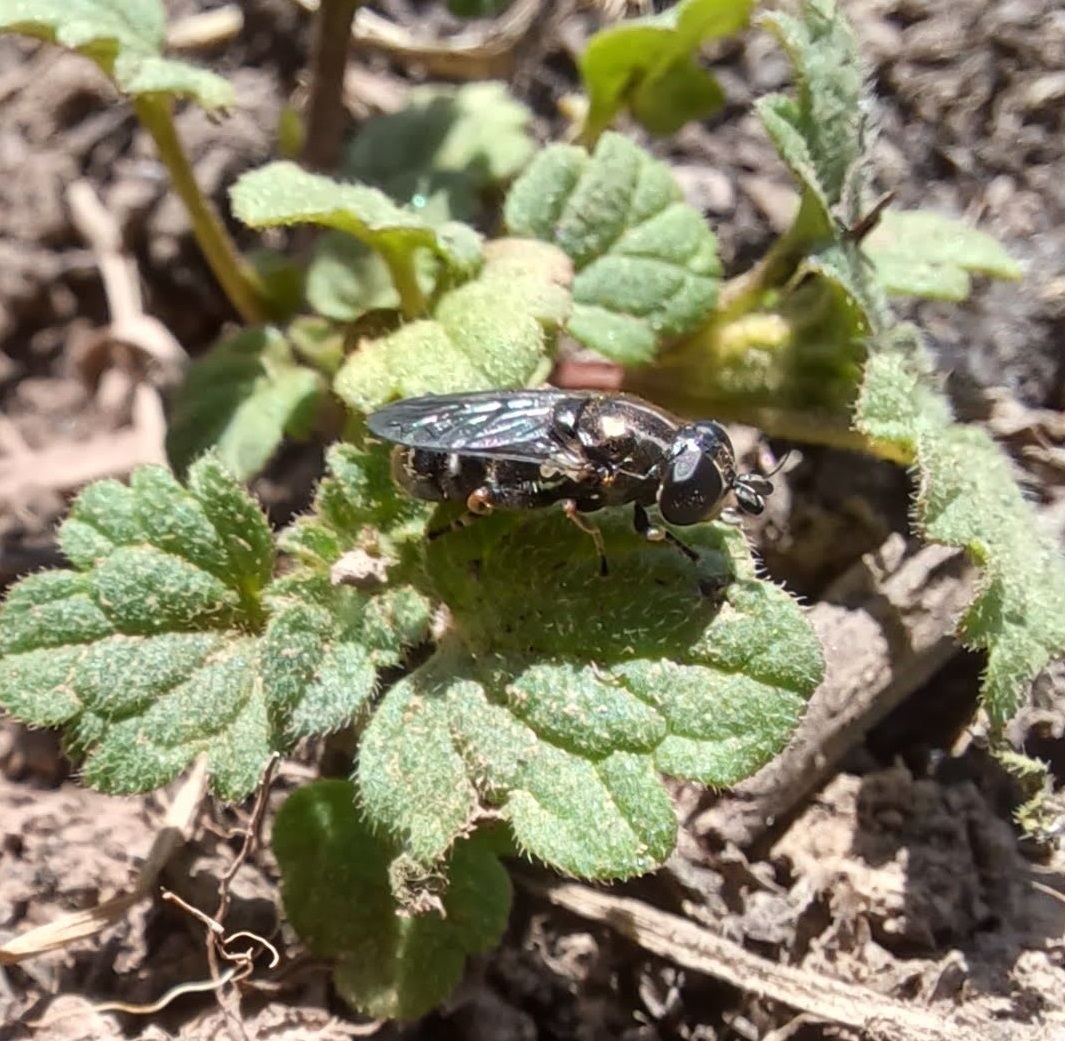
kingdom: Animalia
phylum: Arthropoda
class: Insecta
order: Diptera
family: Syrphidae
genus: Eumerus
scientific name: Eumerus
